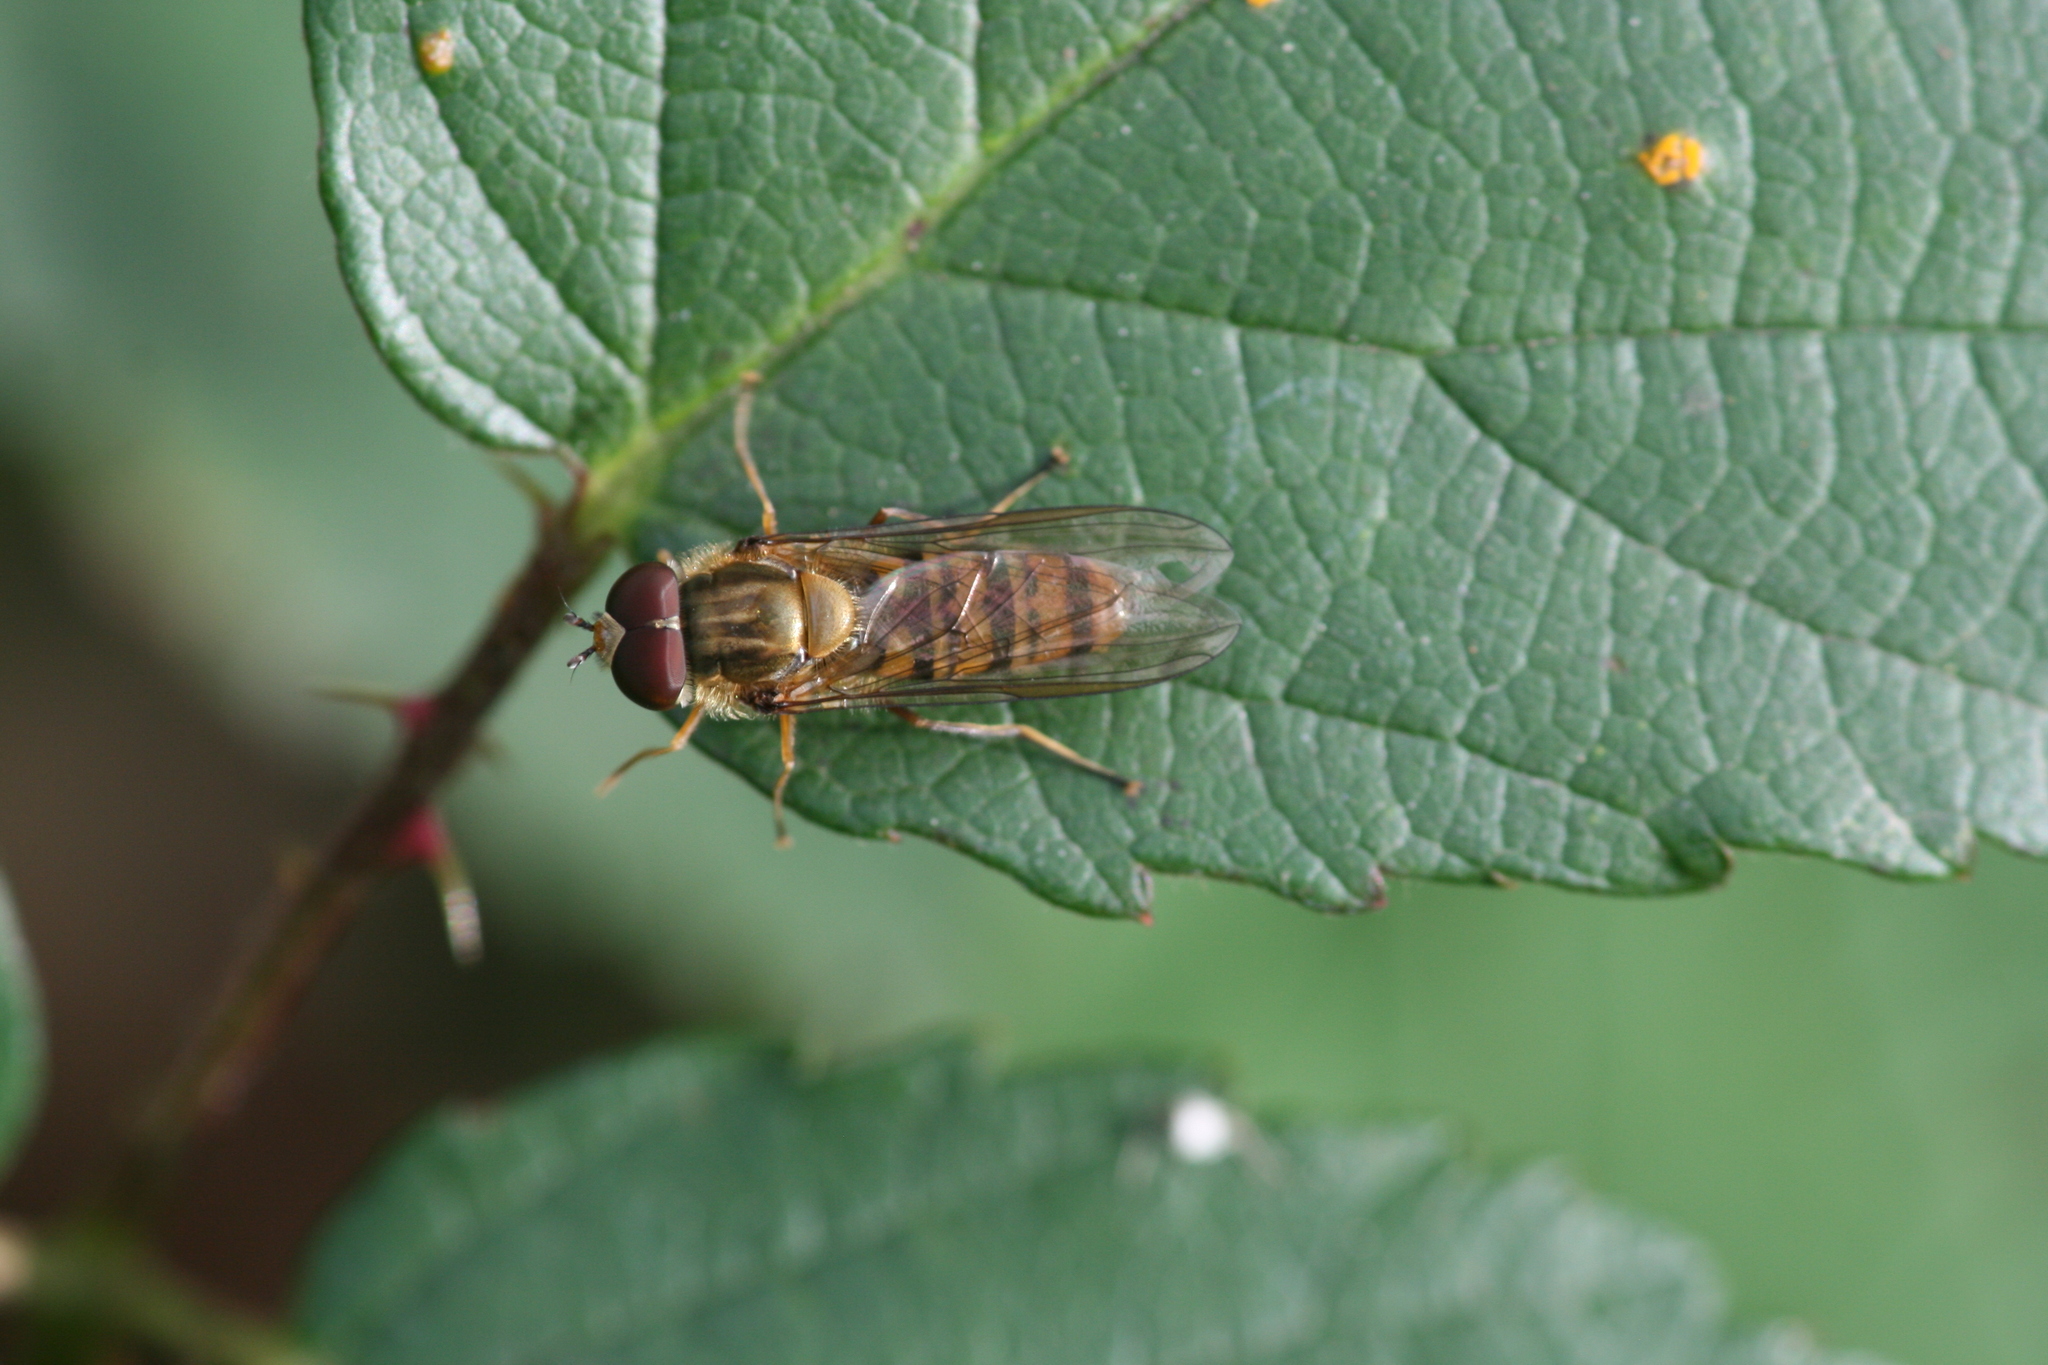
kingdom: Animalia
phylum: Arthropoda
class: Insecta
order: Diptera
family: Syrphidae
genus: Episyrphus
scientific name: Episyrphus balteatus
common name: Marmalade hoverfly
